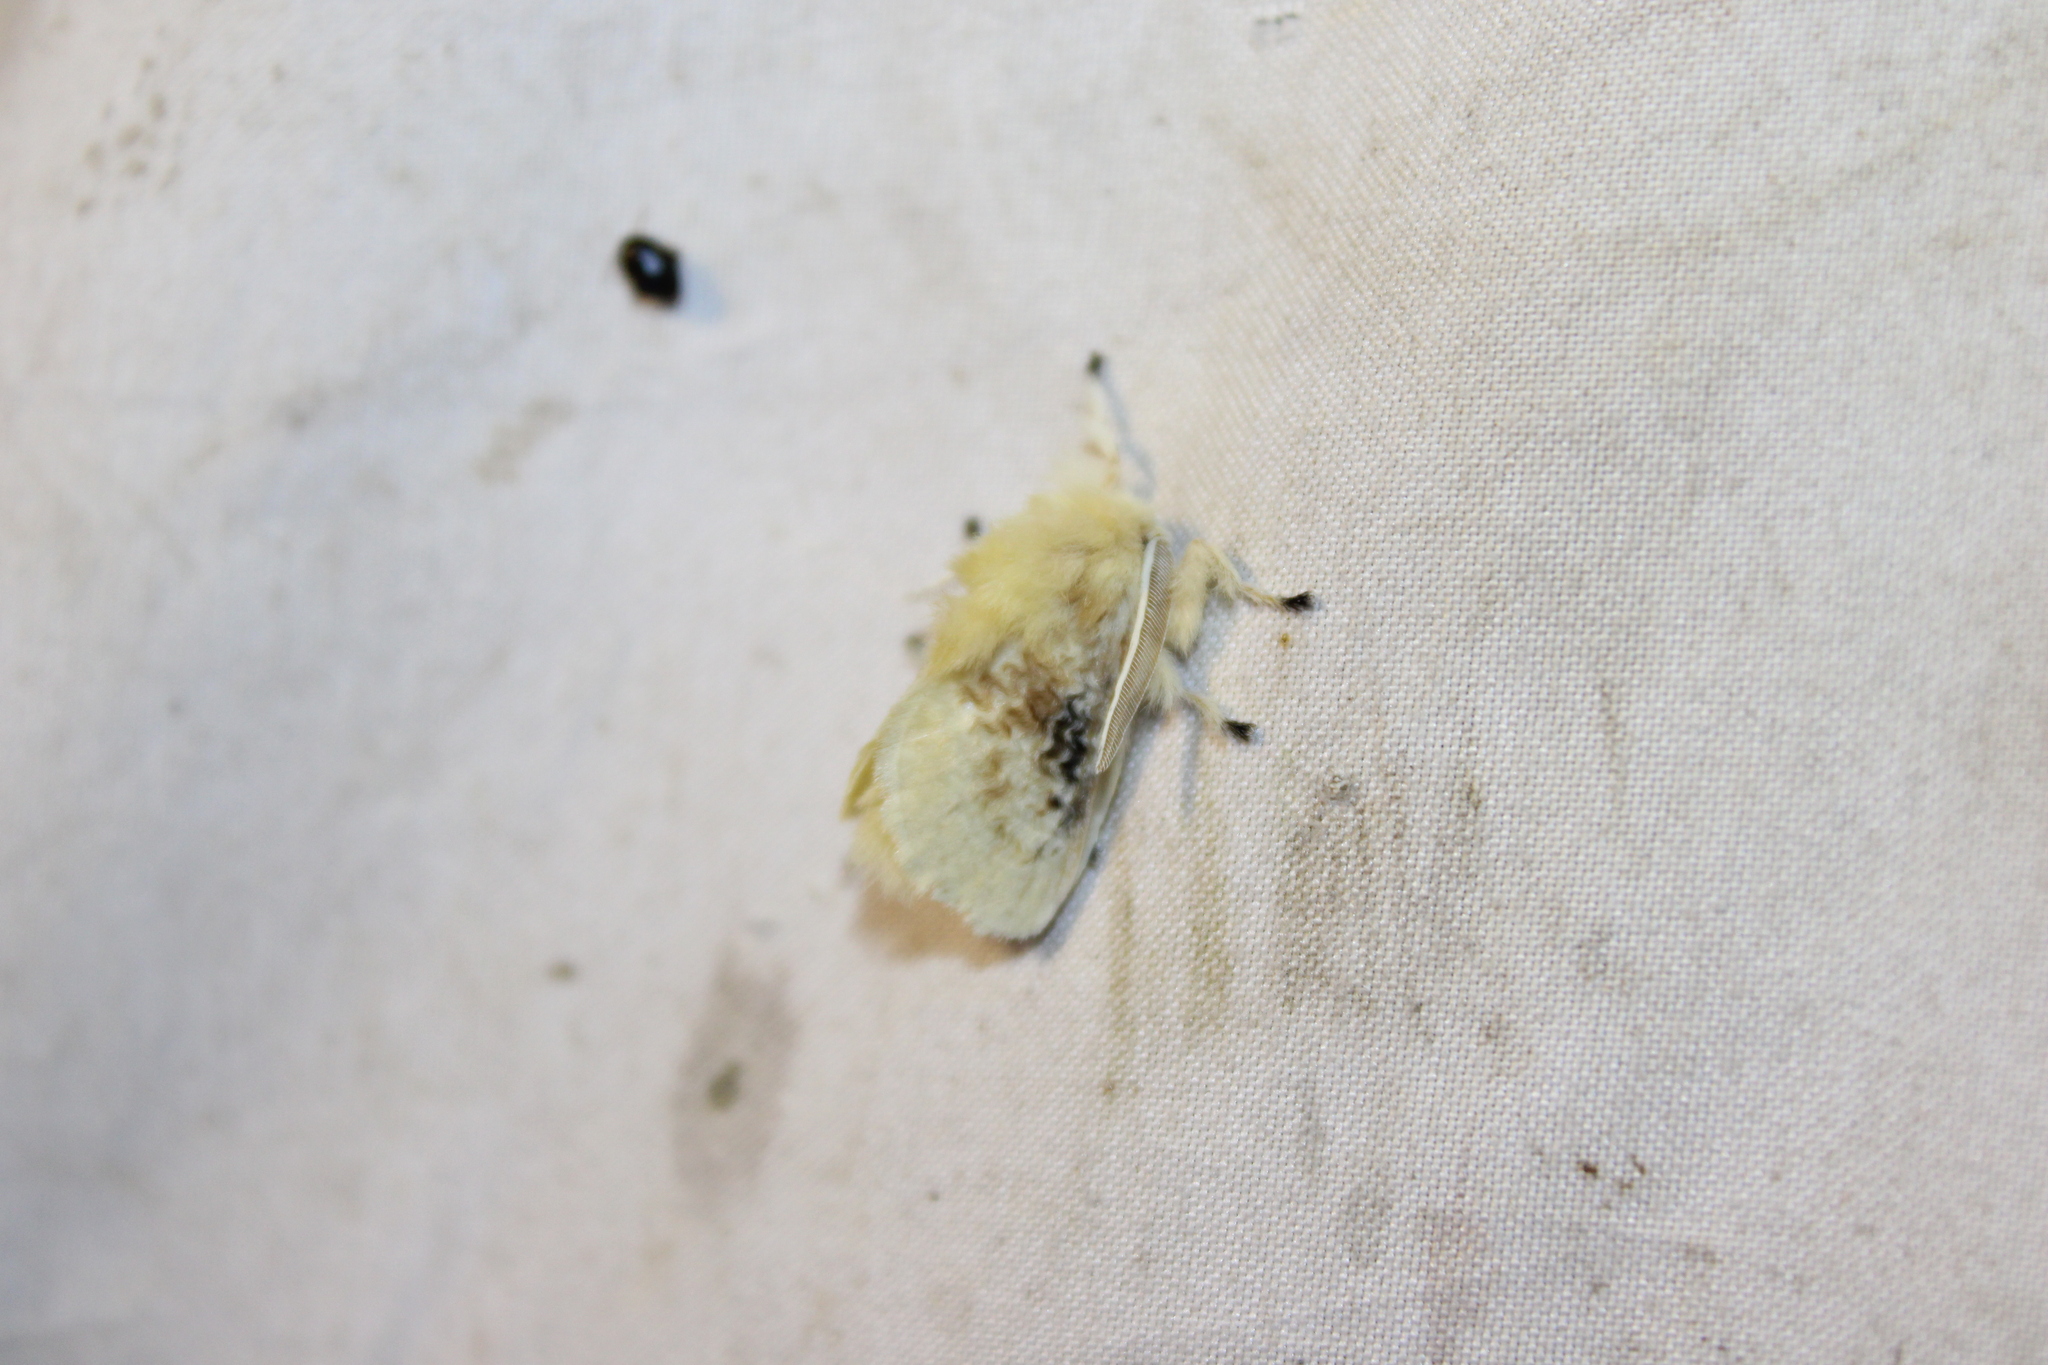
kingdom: Animalia
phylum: Arthropoda
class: Insecta
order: Lepidoptera
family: Megalopygidae
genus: Megalopyge
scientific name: Megalopyge crispata
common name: Black-waved flannel moth
